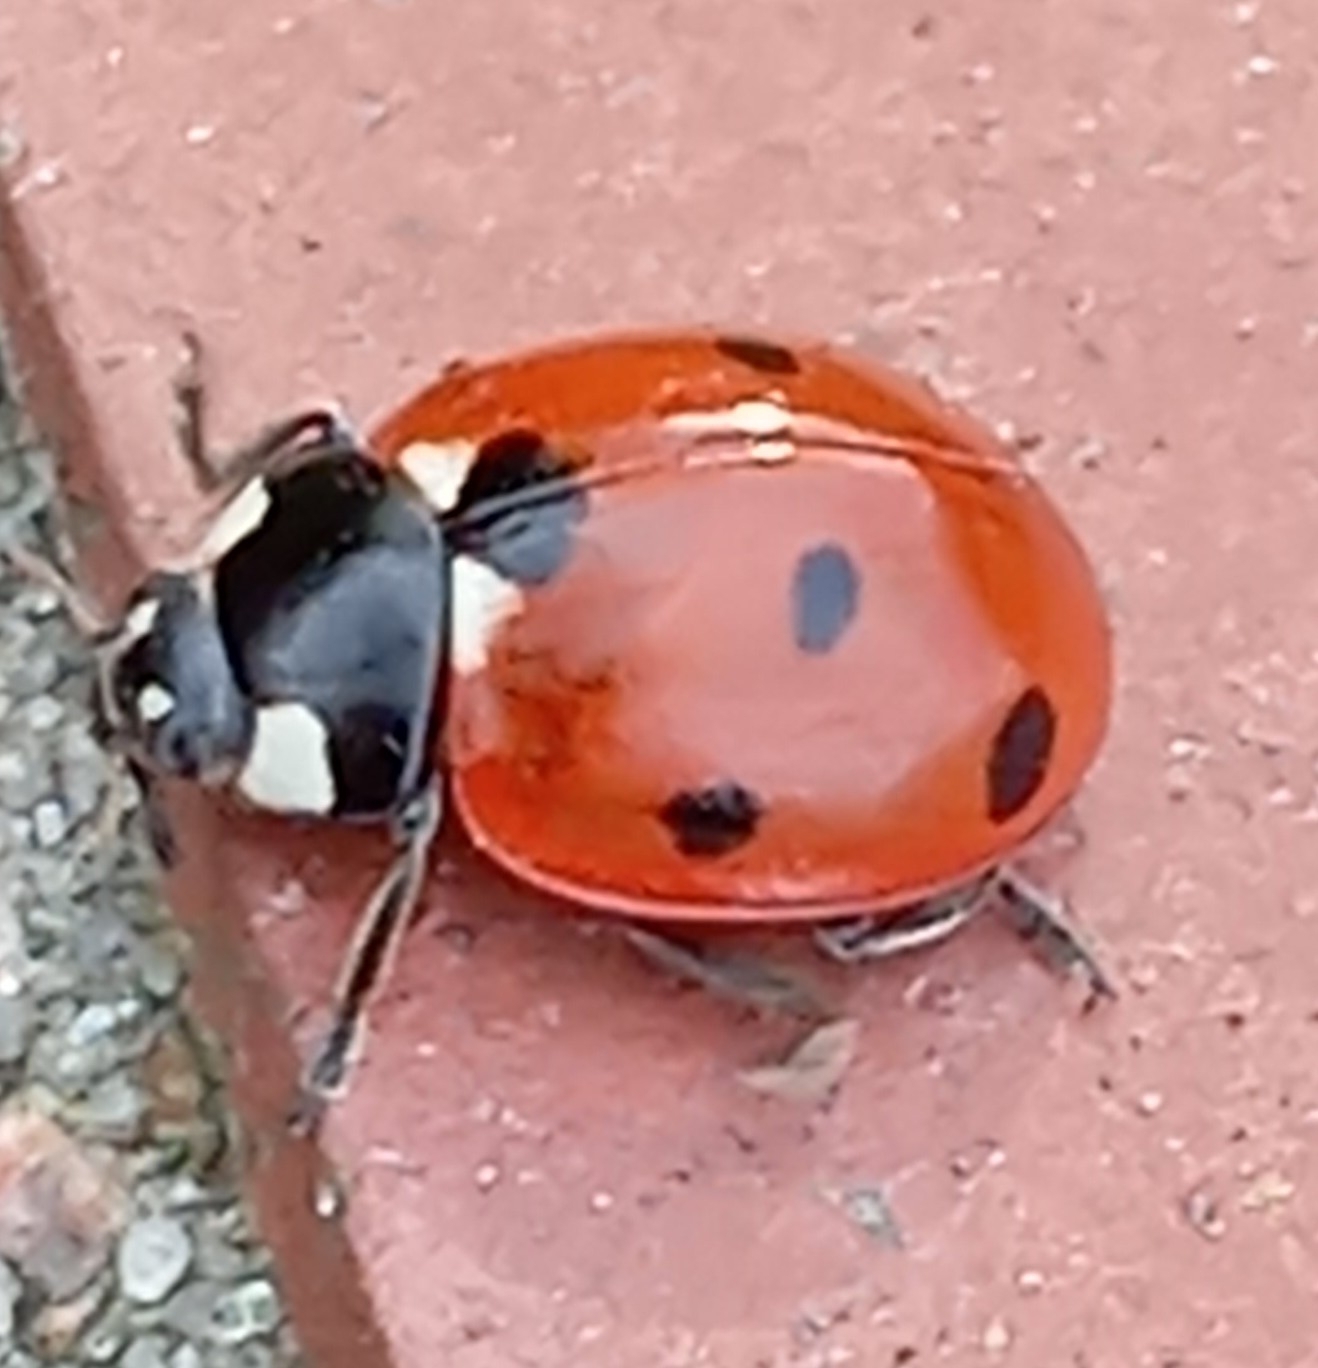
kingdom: Animalia
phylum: Arthropoda
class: Insecta
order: Coleoptera
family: Coccinellidae
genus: Coccinella
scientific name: Coccinella septempunctata
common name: Sevenspotted lady beetle
